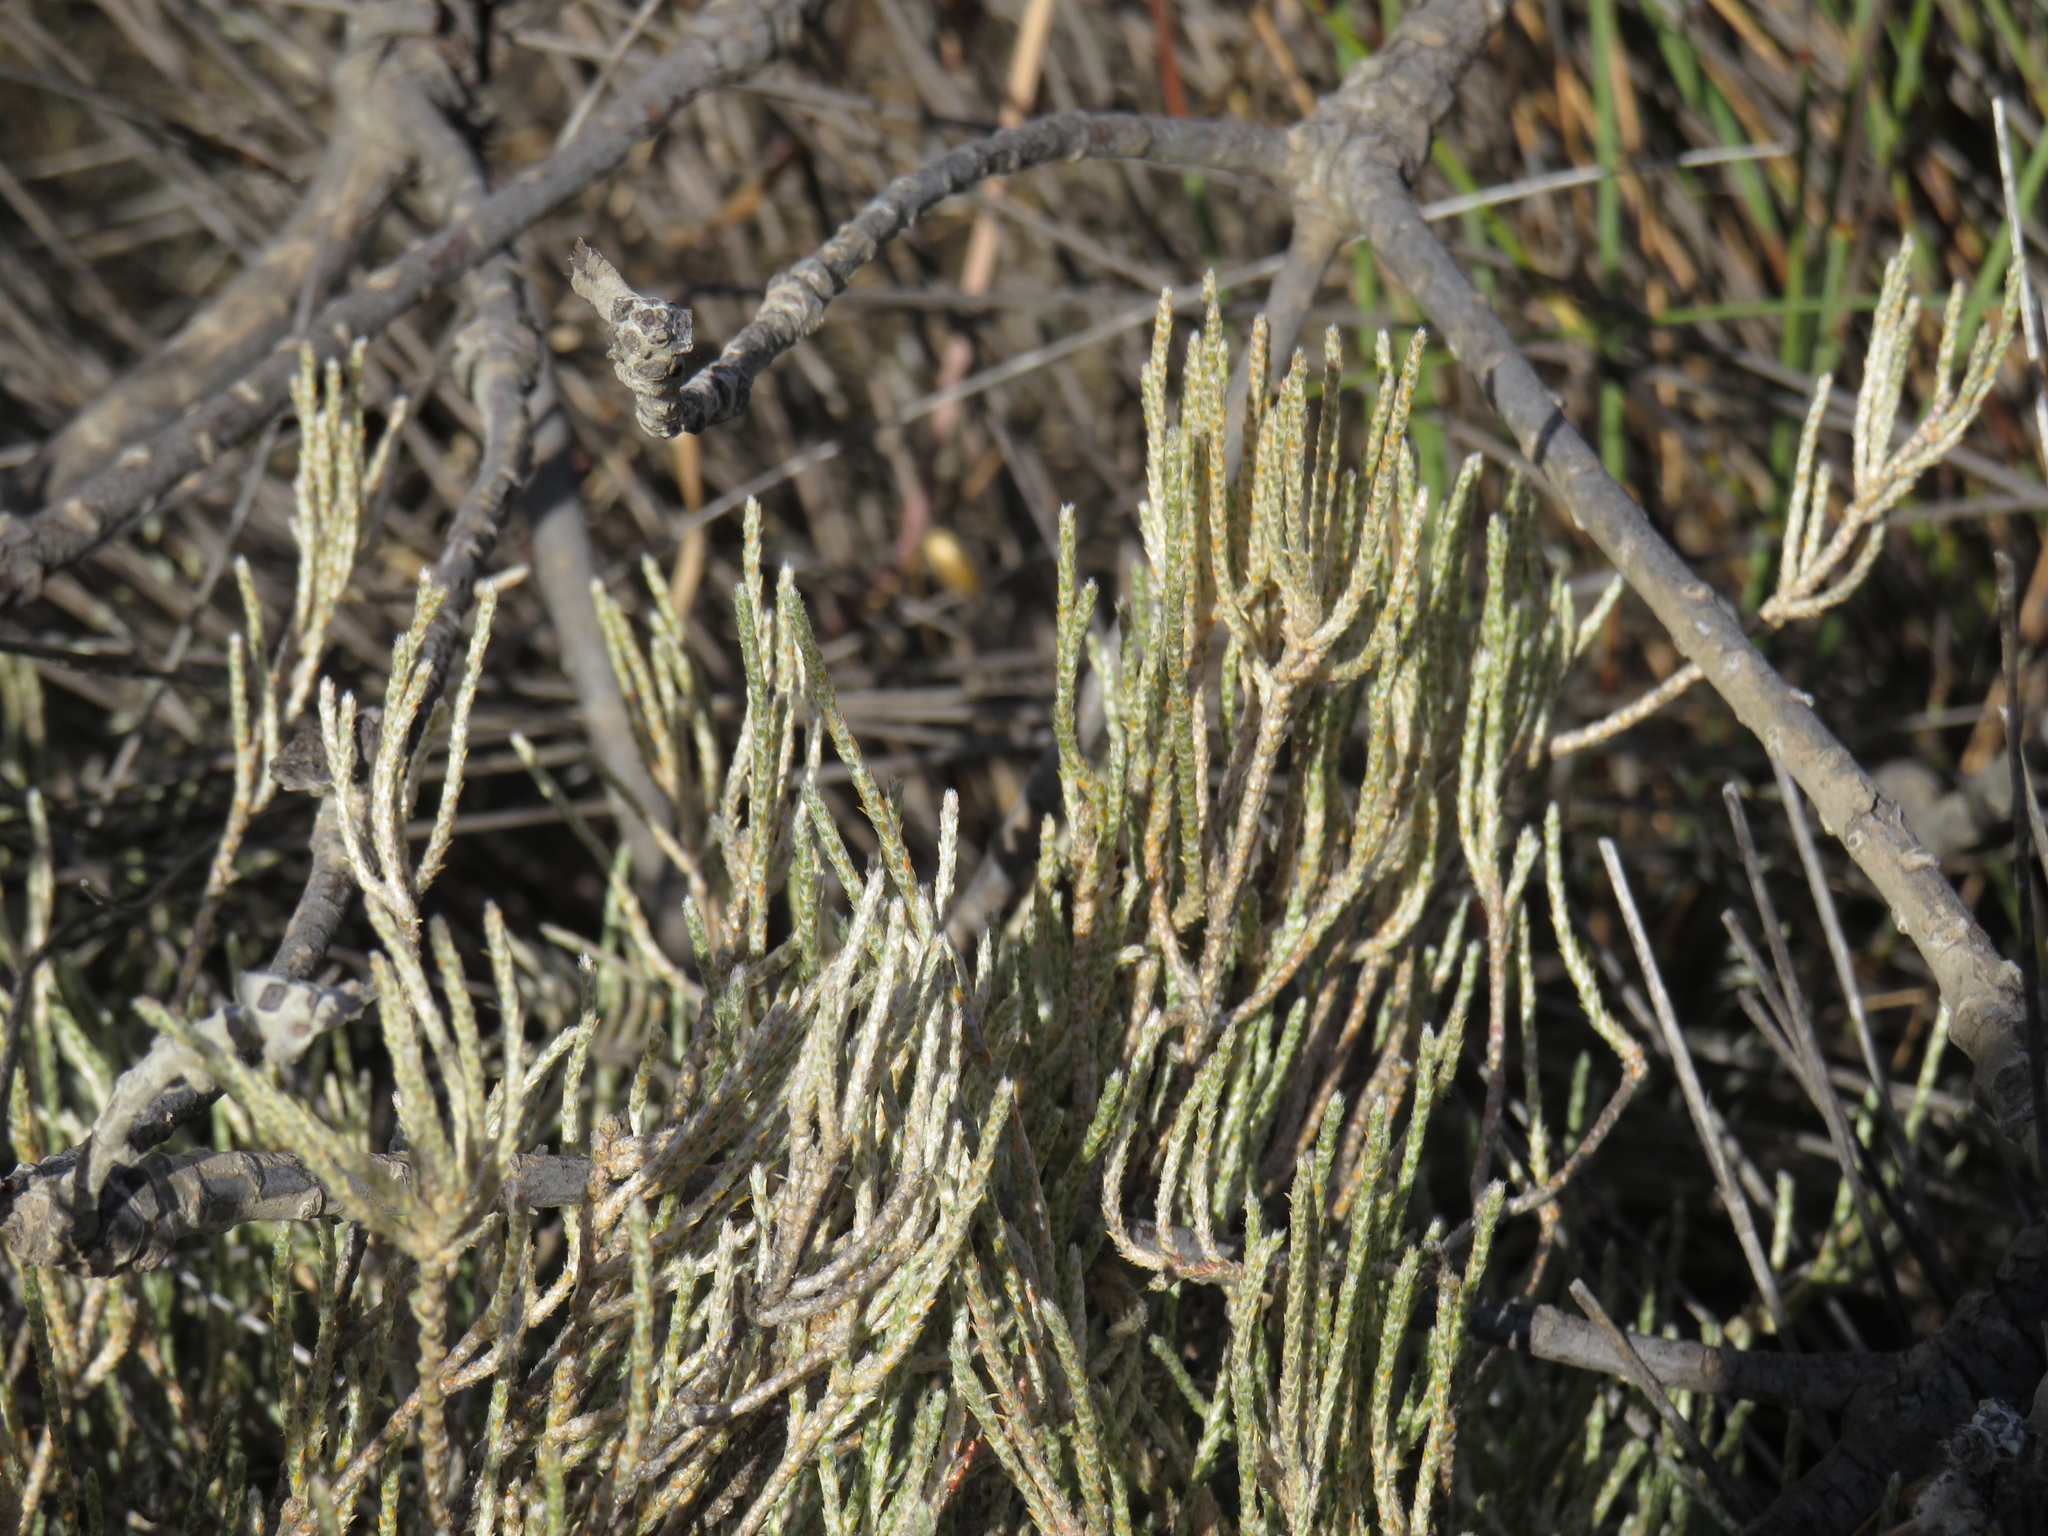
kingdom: Plantae
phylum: Tracheophyta
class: Magnoliopsida
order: Caryophyllales
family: Molluginaceae
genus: Polpoda
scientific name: Polpoda capensis
